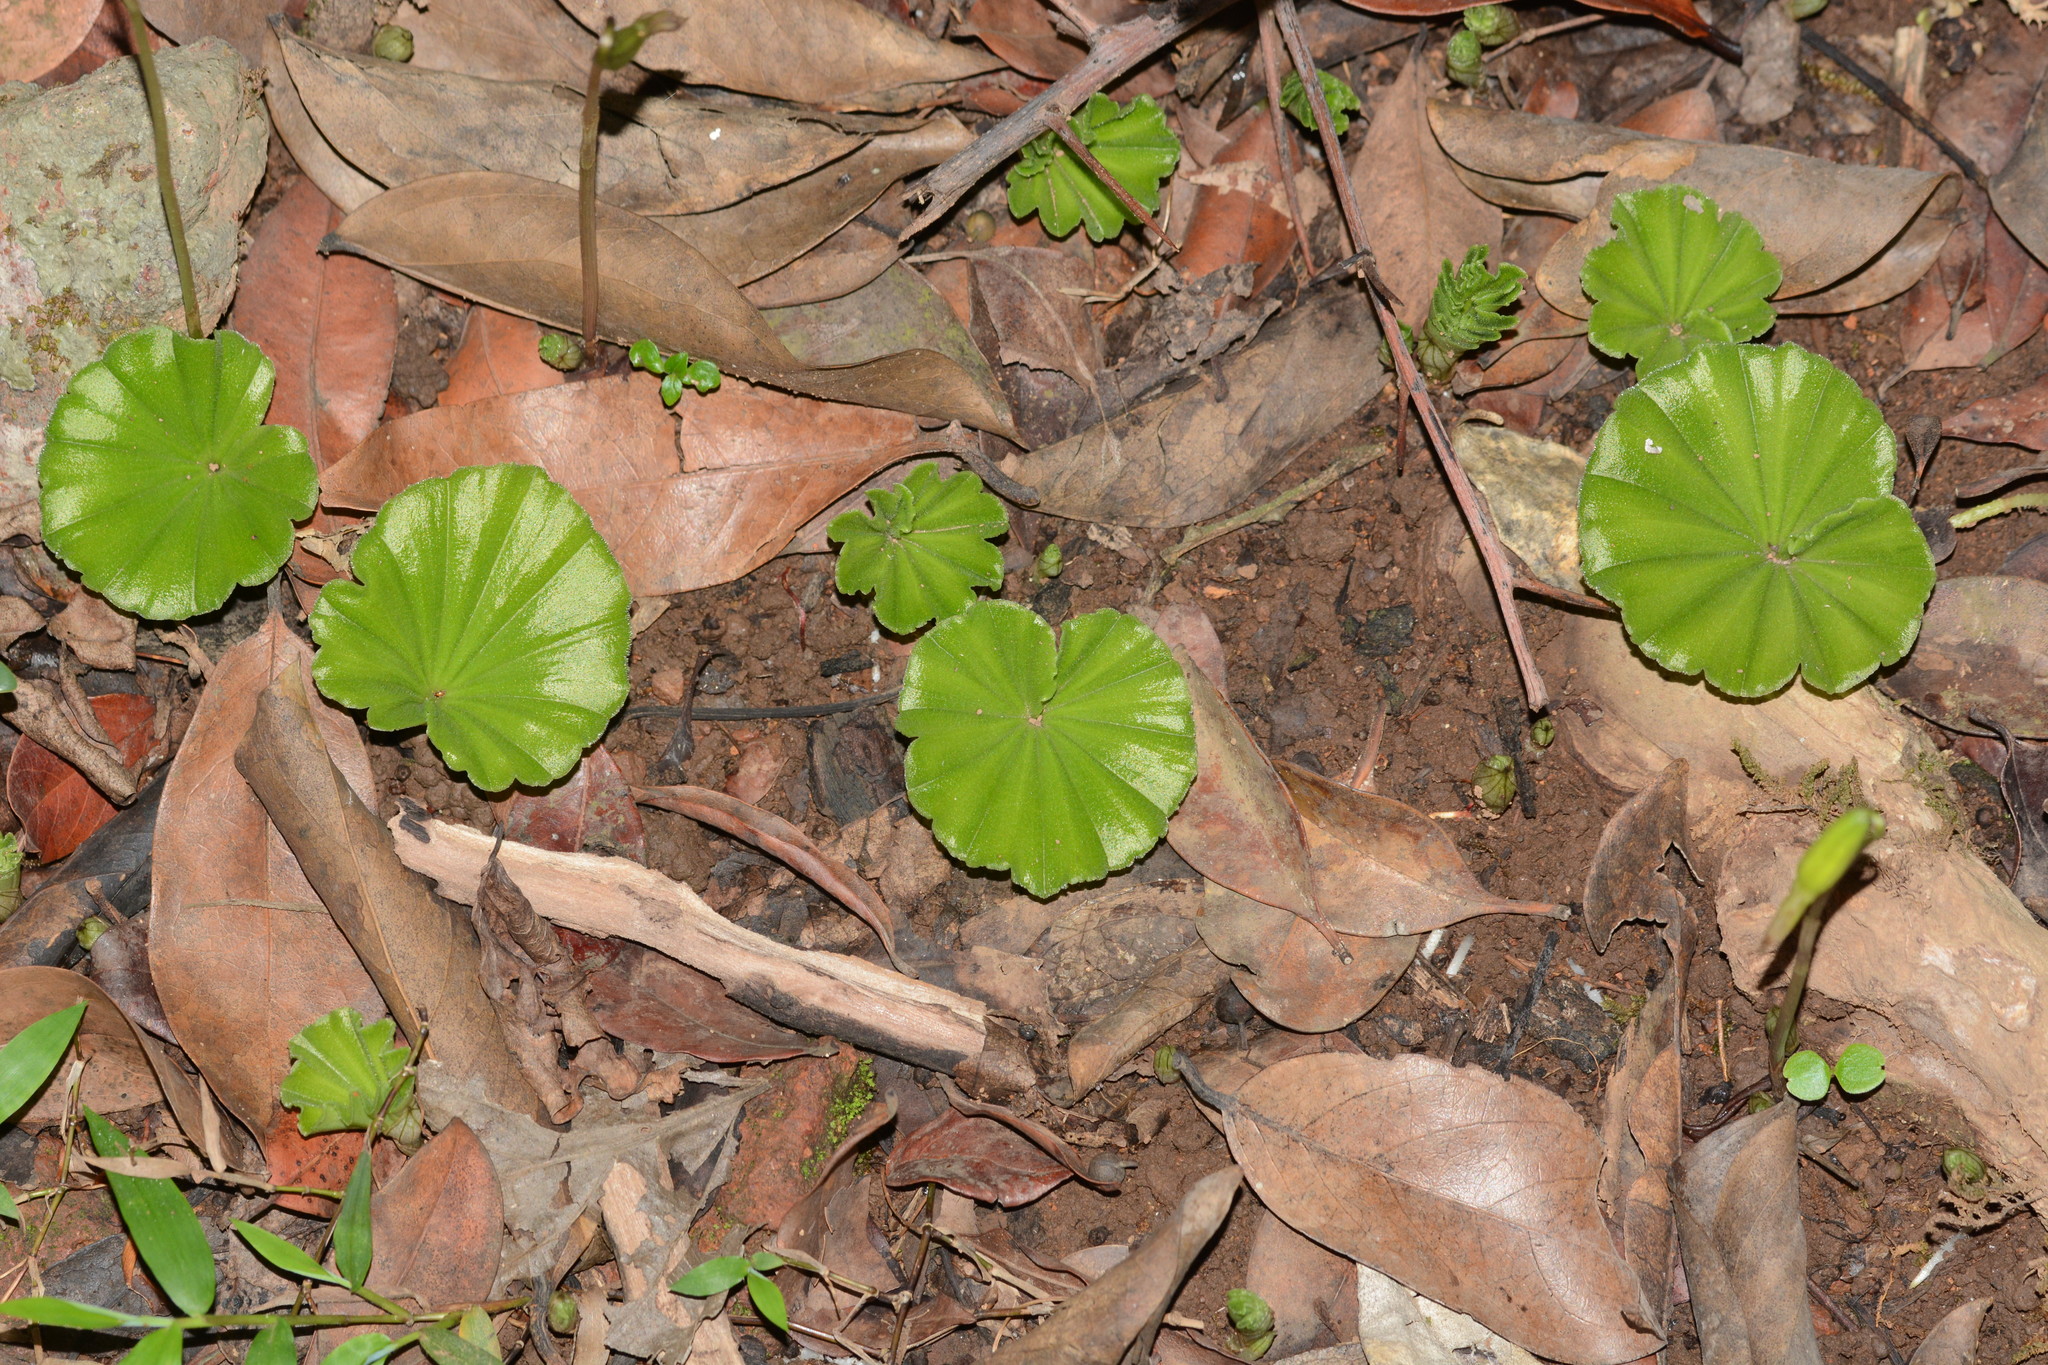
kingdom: Plantae
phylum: Tracheophyta
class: Liliopsida
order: Asparagales
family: Orchidaceae
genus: Nervilia
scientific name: Nervilia simplex
